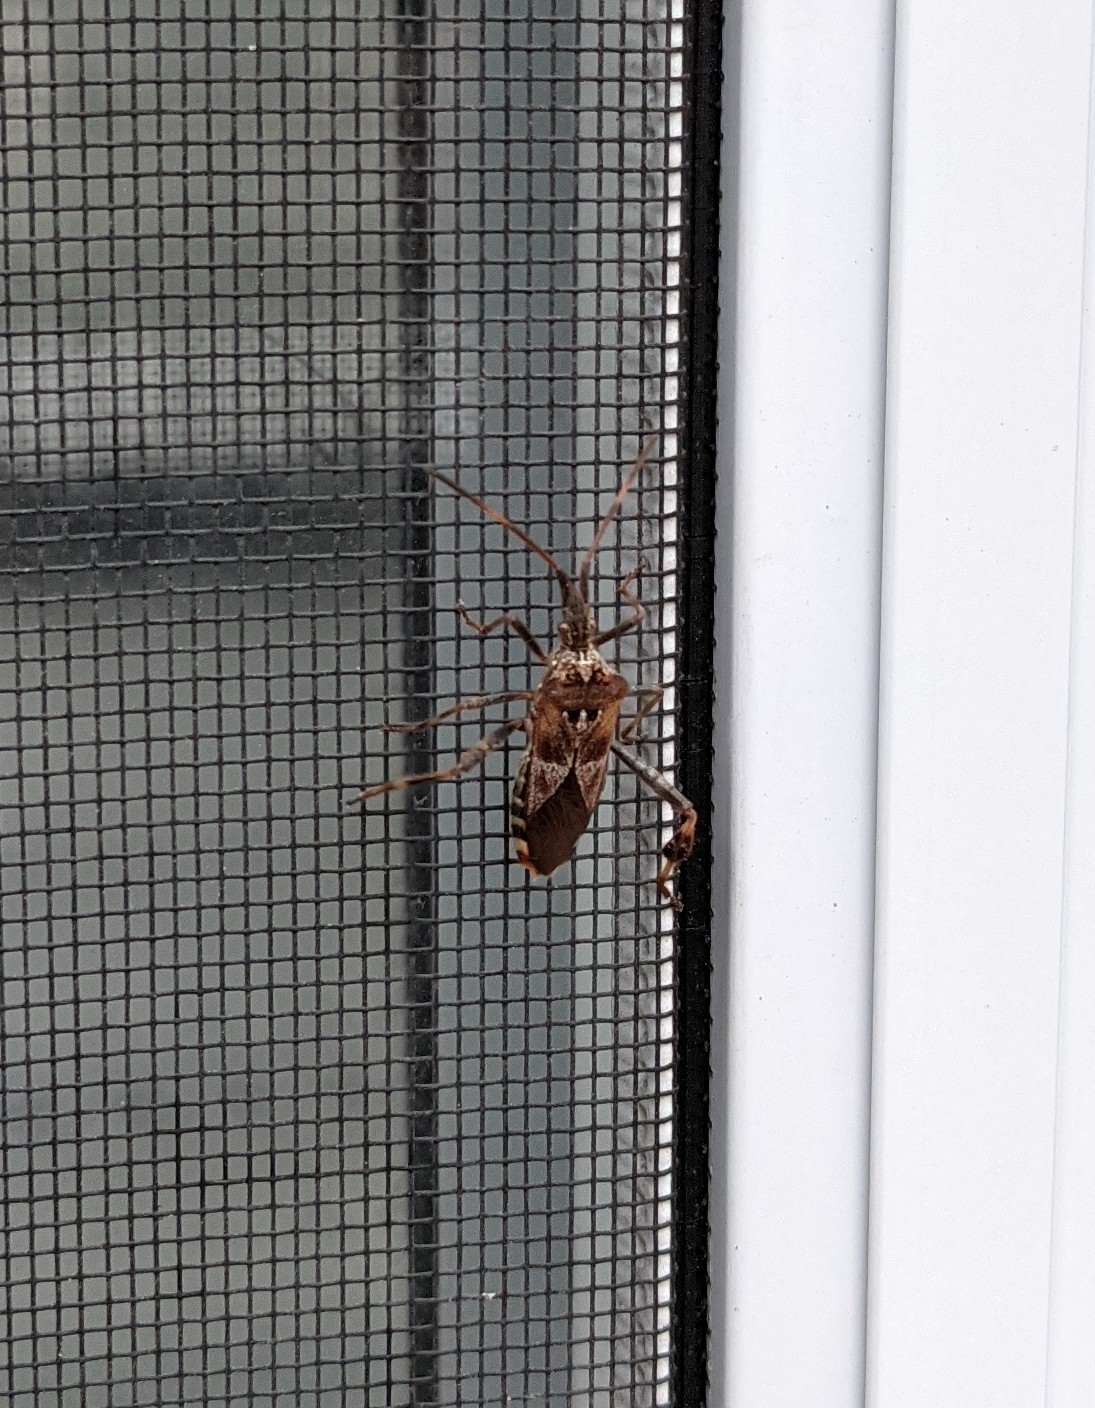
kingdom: Animalia
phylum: Arthropoda
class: Insecta
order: Hemiptera
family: Coreidae
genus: Leptoglossus
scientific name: Leptoglossus occidentalis
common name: Western conifer-seed bug
